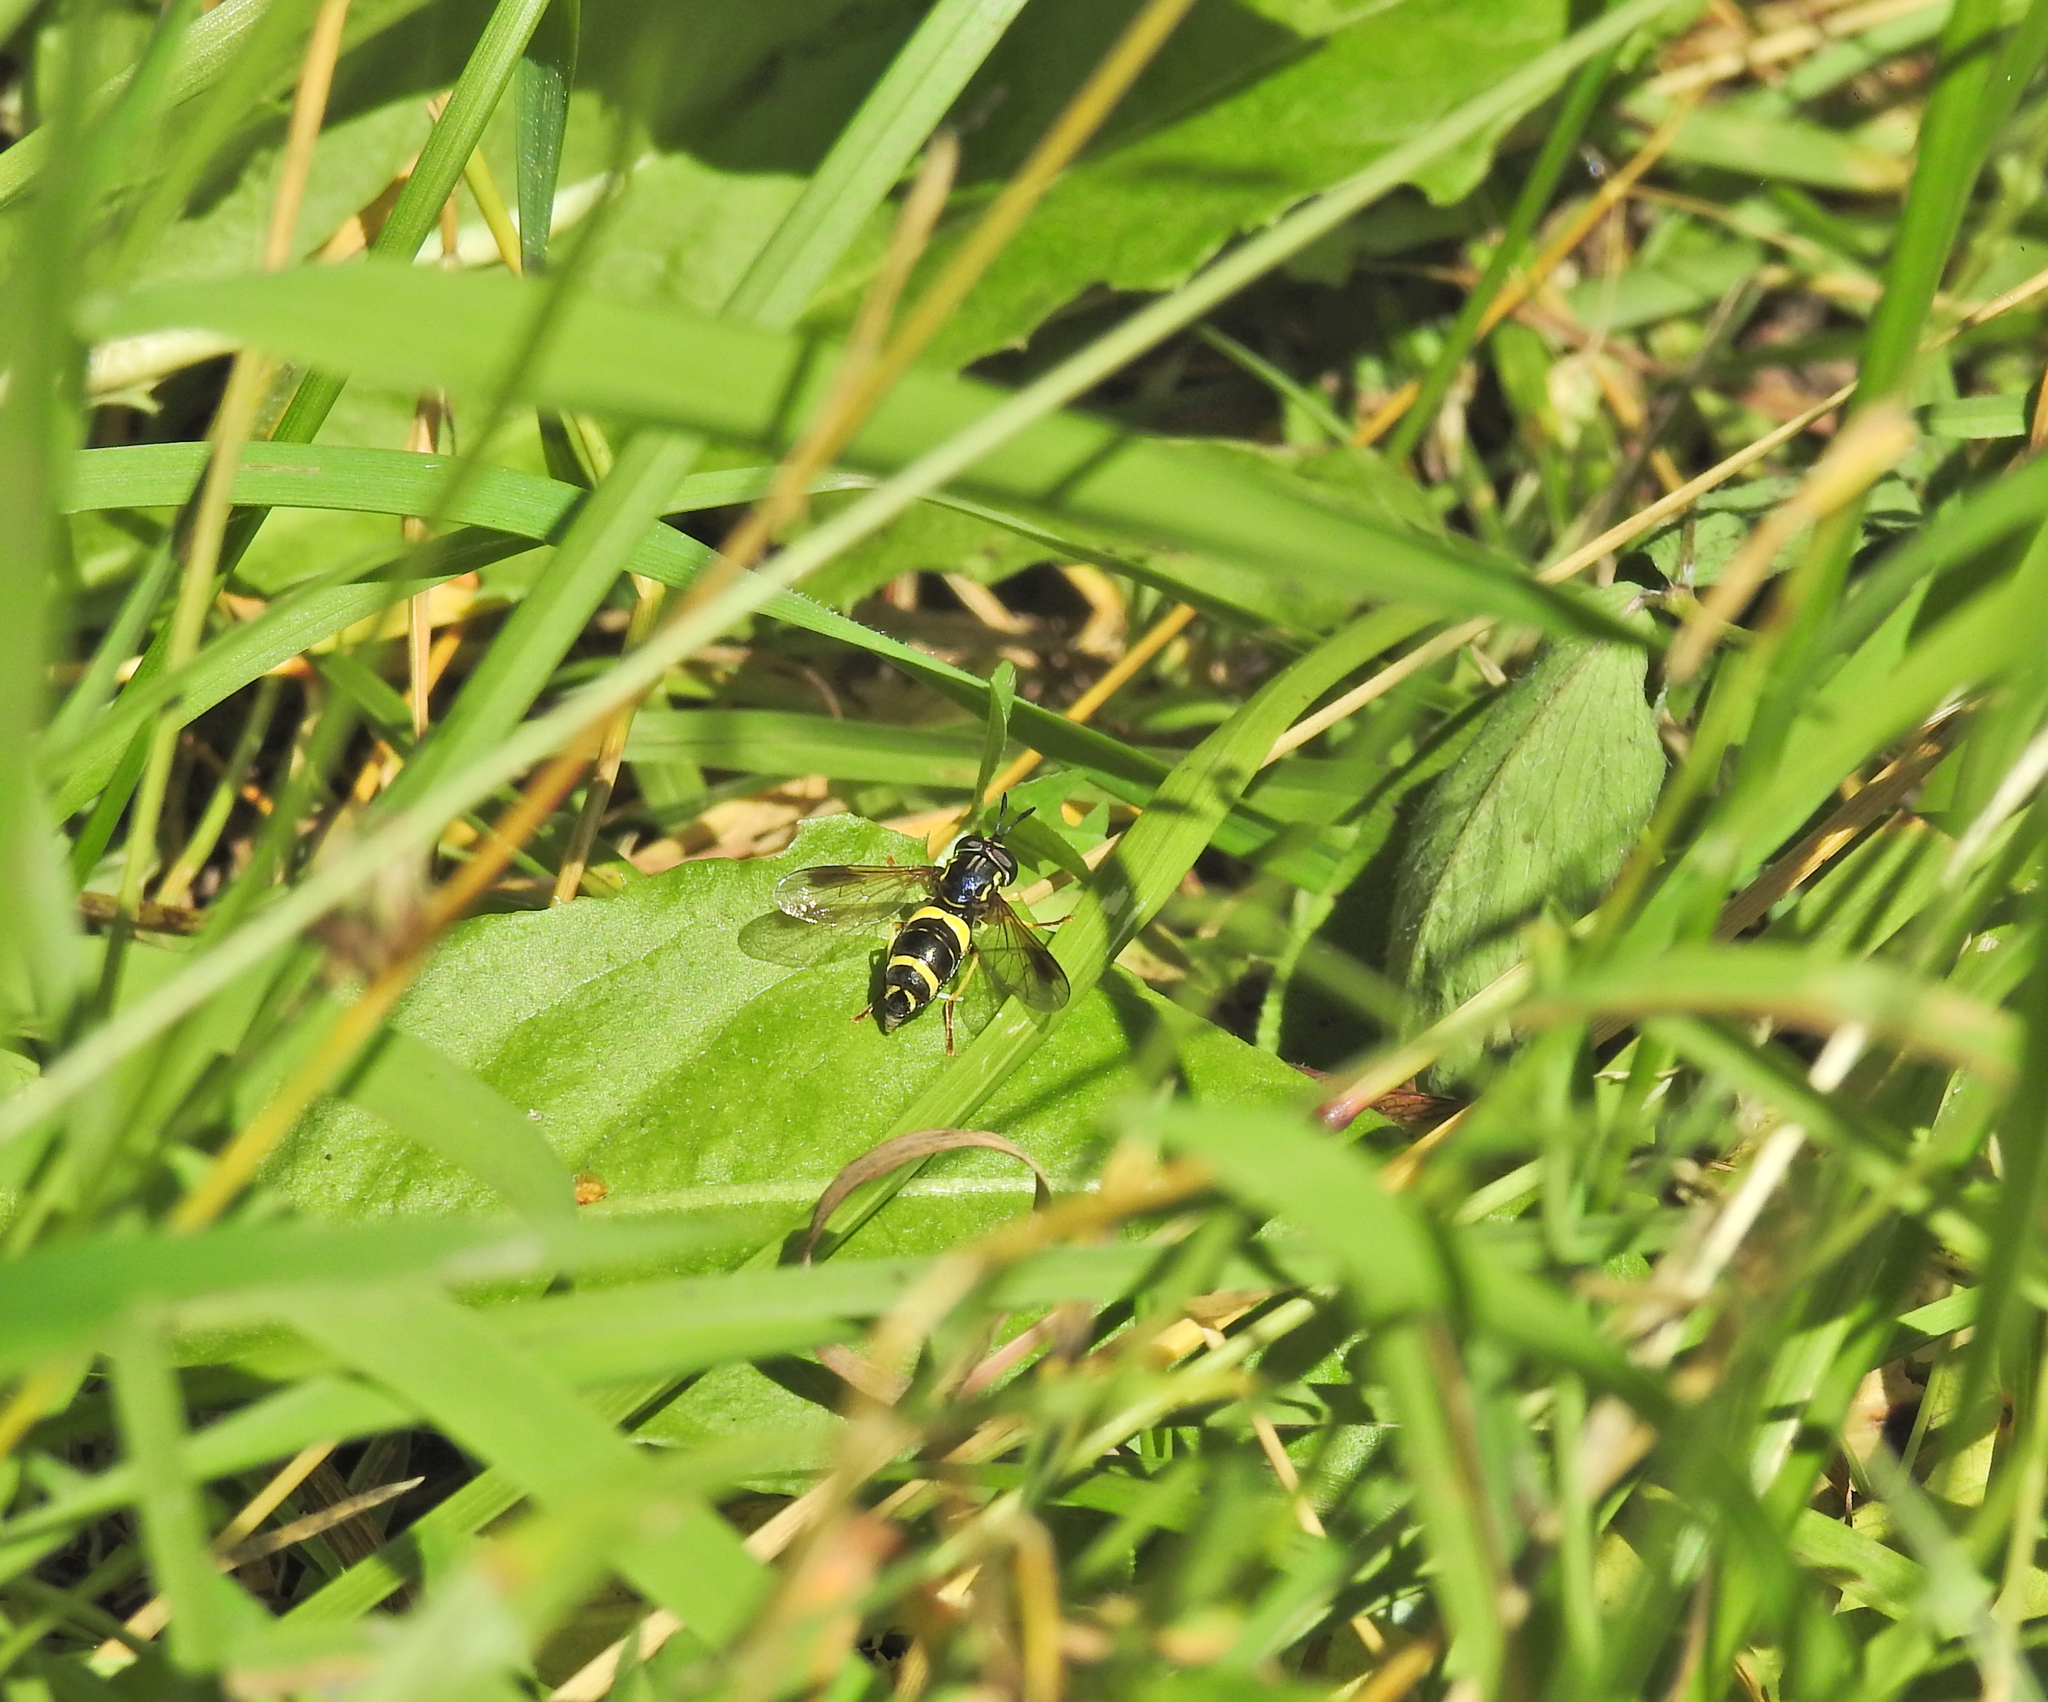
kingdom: Animalia
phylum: Arthropoda
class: Insecta
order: Diptera
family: Syrphidae
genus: Chrysotoxum
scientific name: Chrysotoxum bicincta
